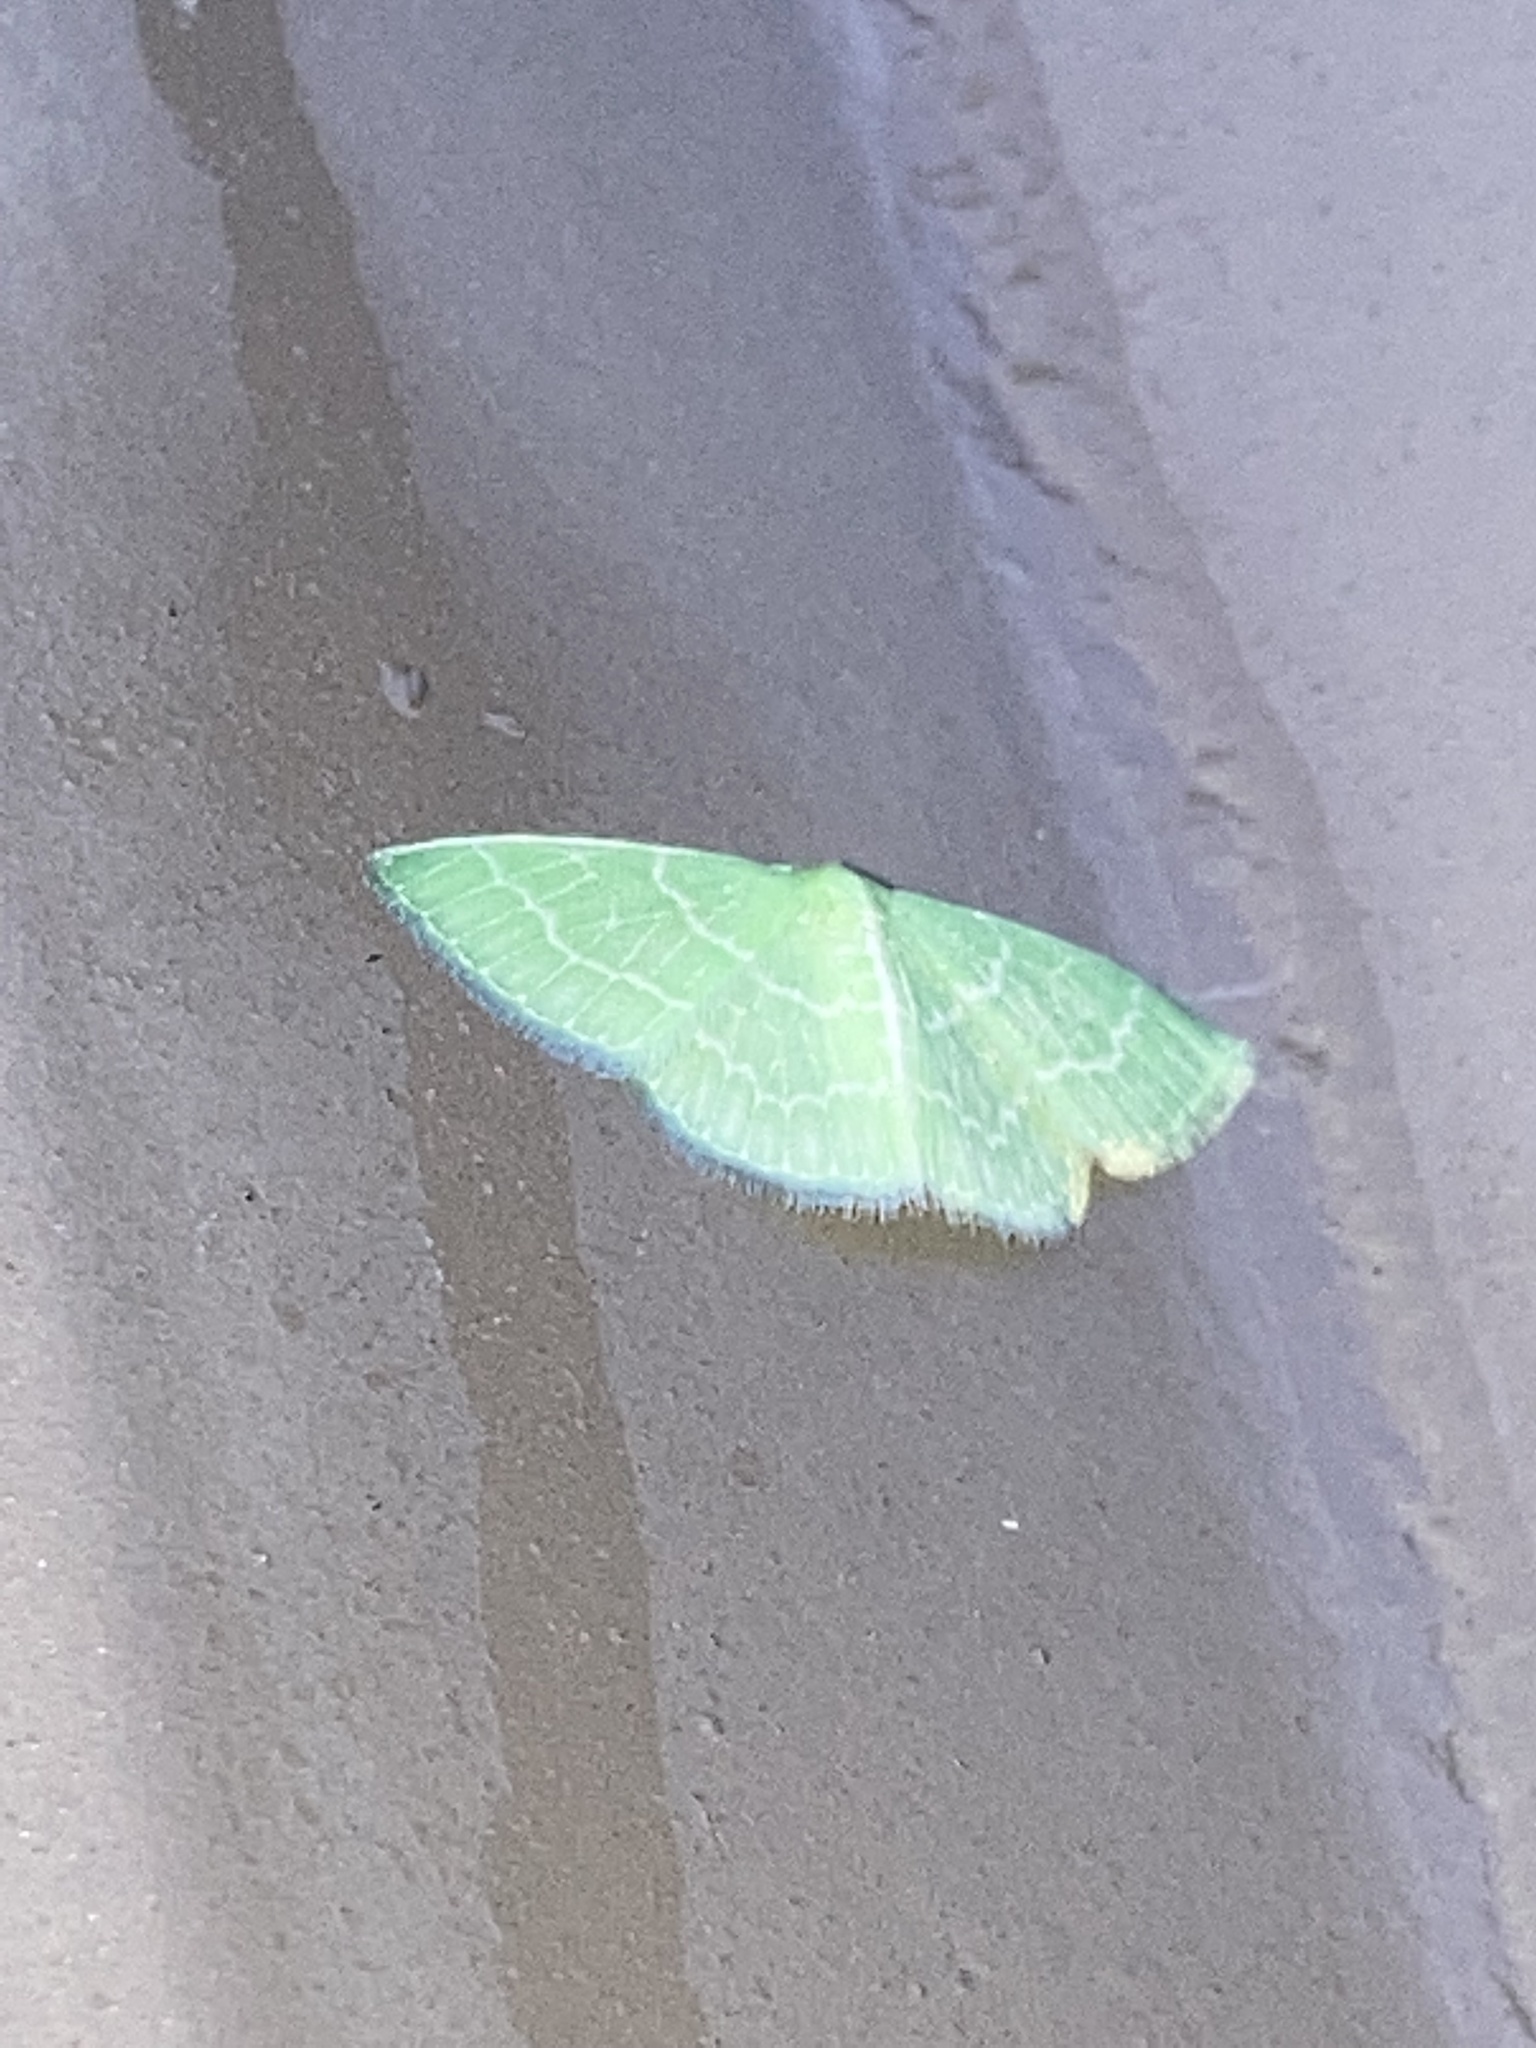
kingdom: Animalia
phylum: Arthropoda
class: Insecta
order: Lepidoptera
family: Geometridae
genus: Synchlora
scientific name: Synchlora aerata
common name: Wavy-lined emerald
